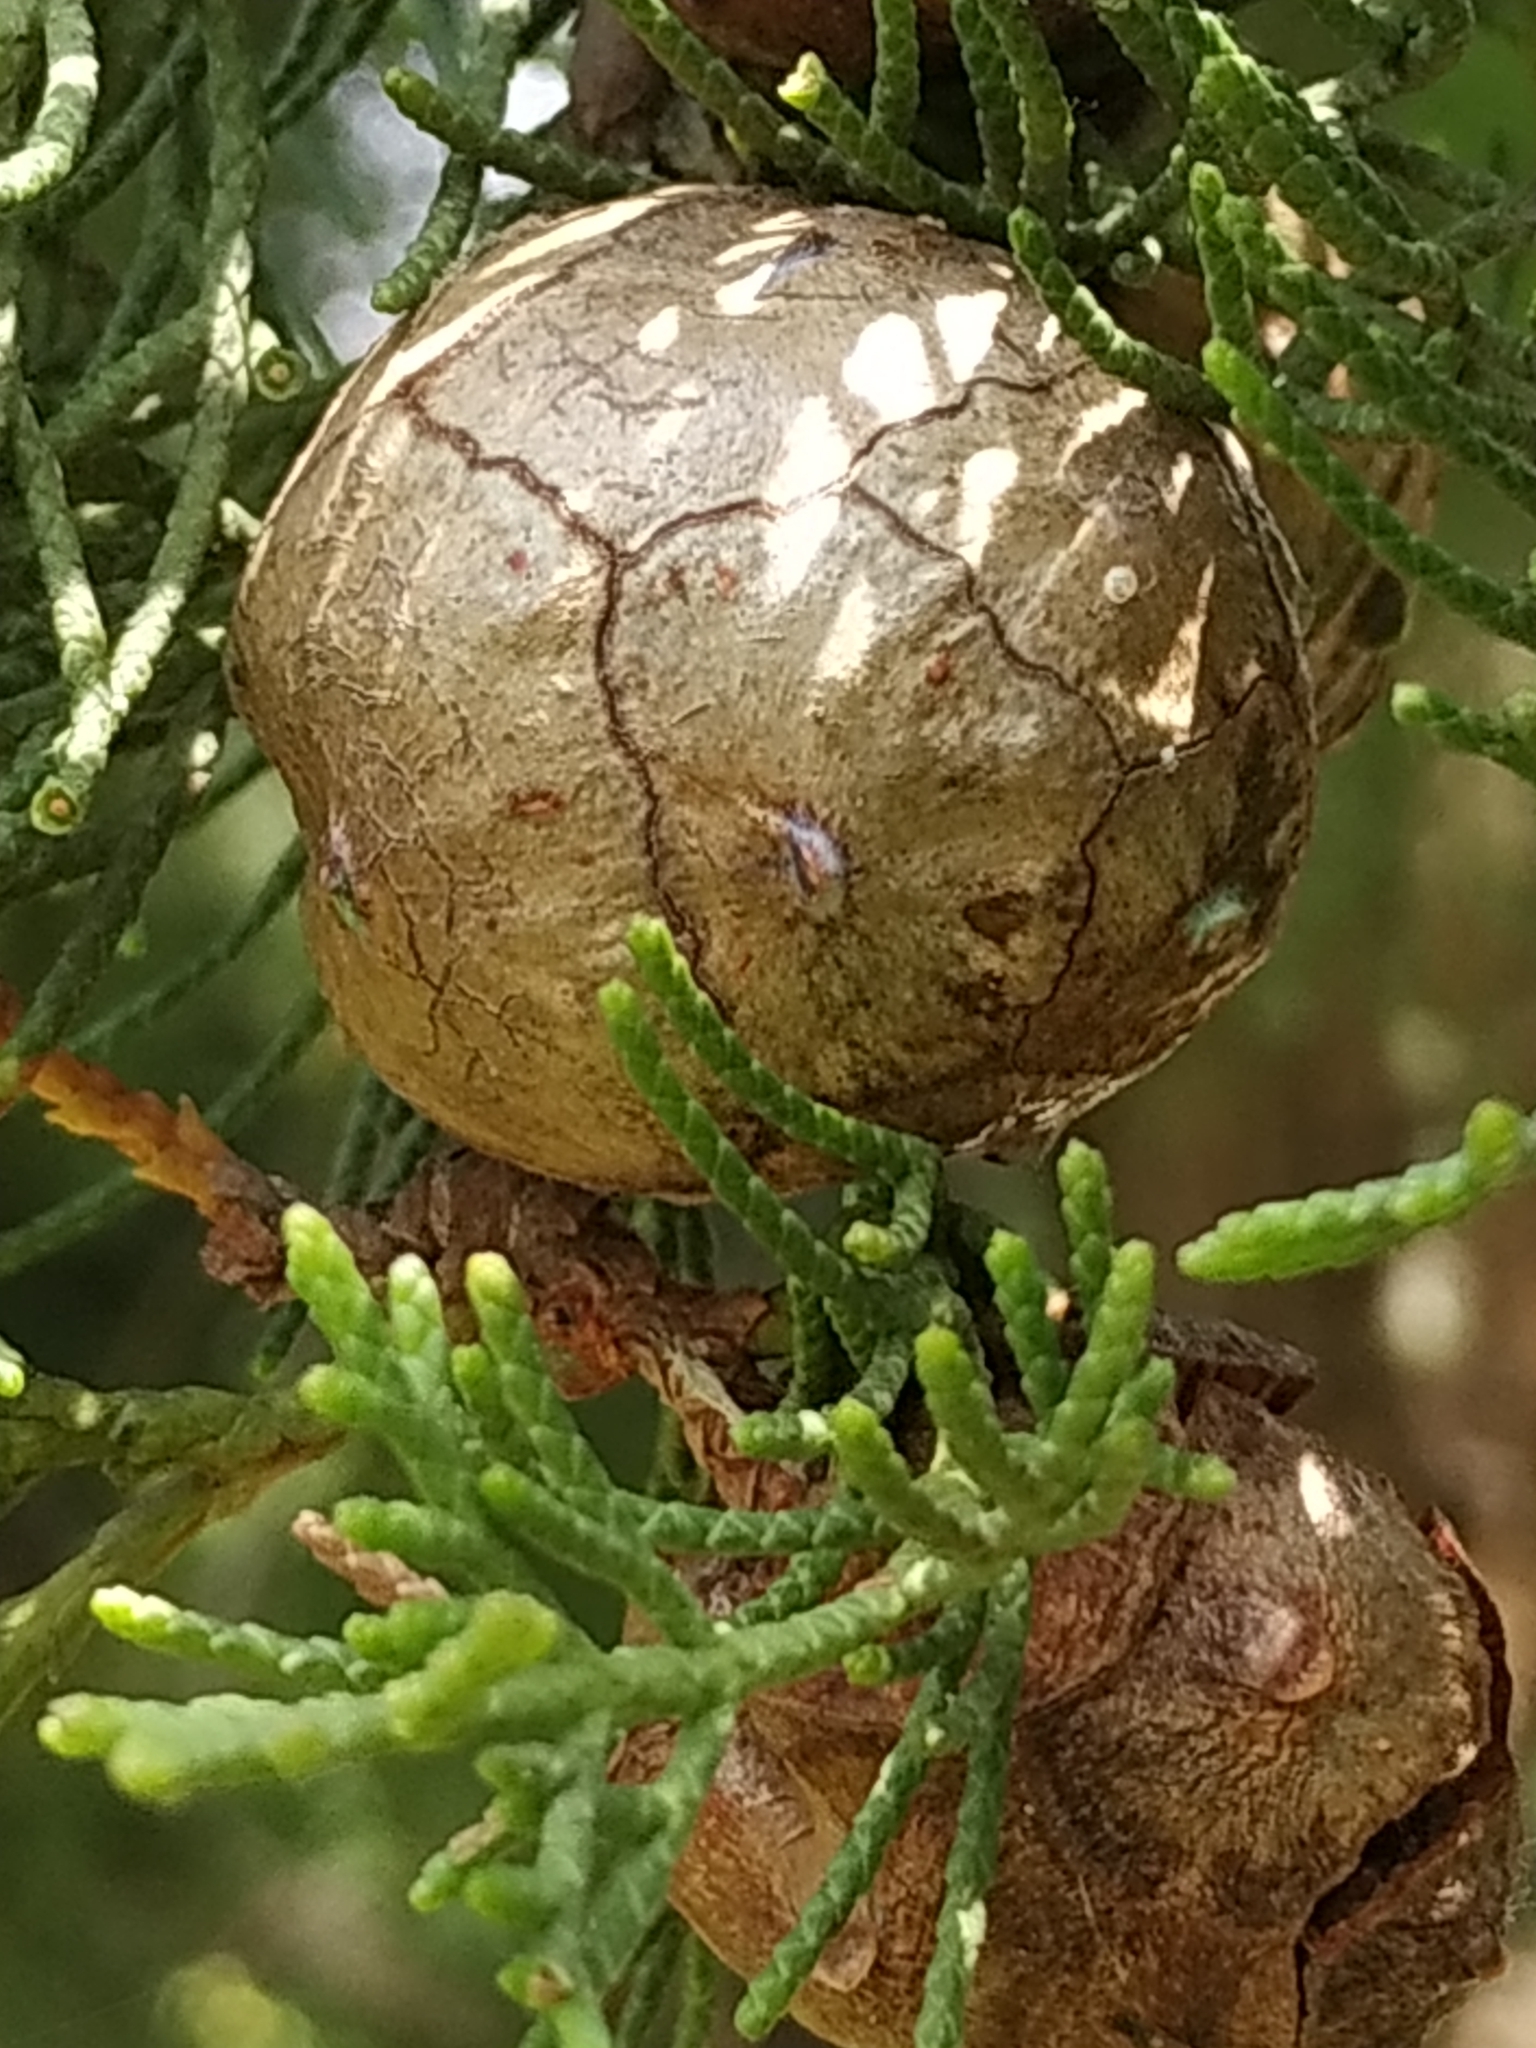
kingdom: Plantae
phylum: Tracheophyta
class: Pinopsida
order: Pinales
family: Cupressaceae
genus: Cupressus
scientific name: Cupressus sempervirens
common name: Italian cypress
